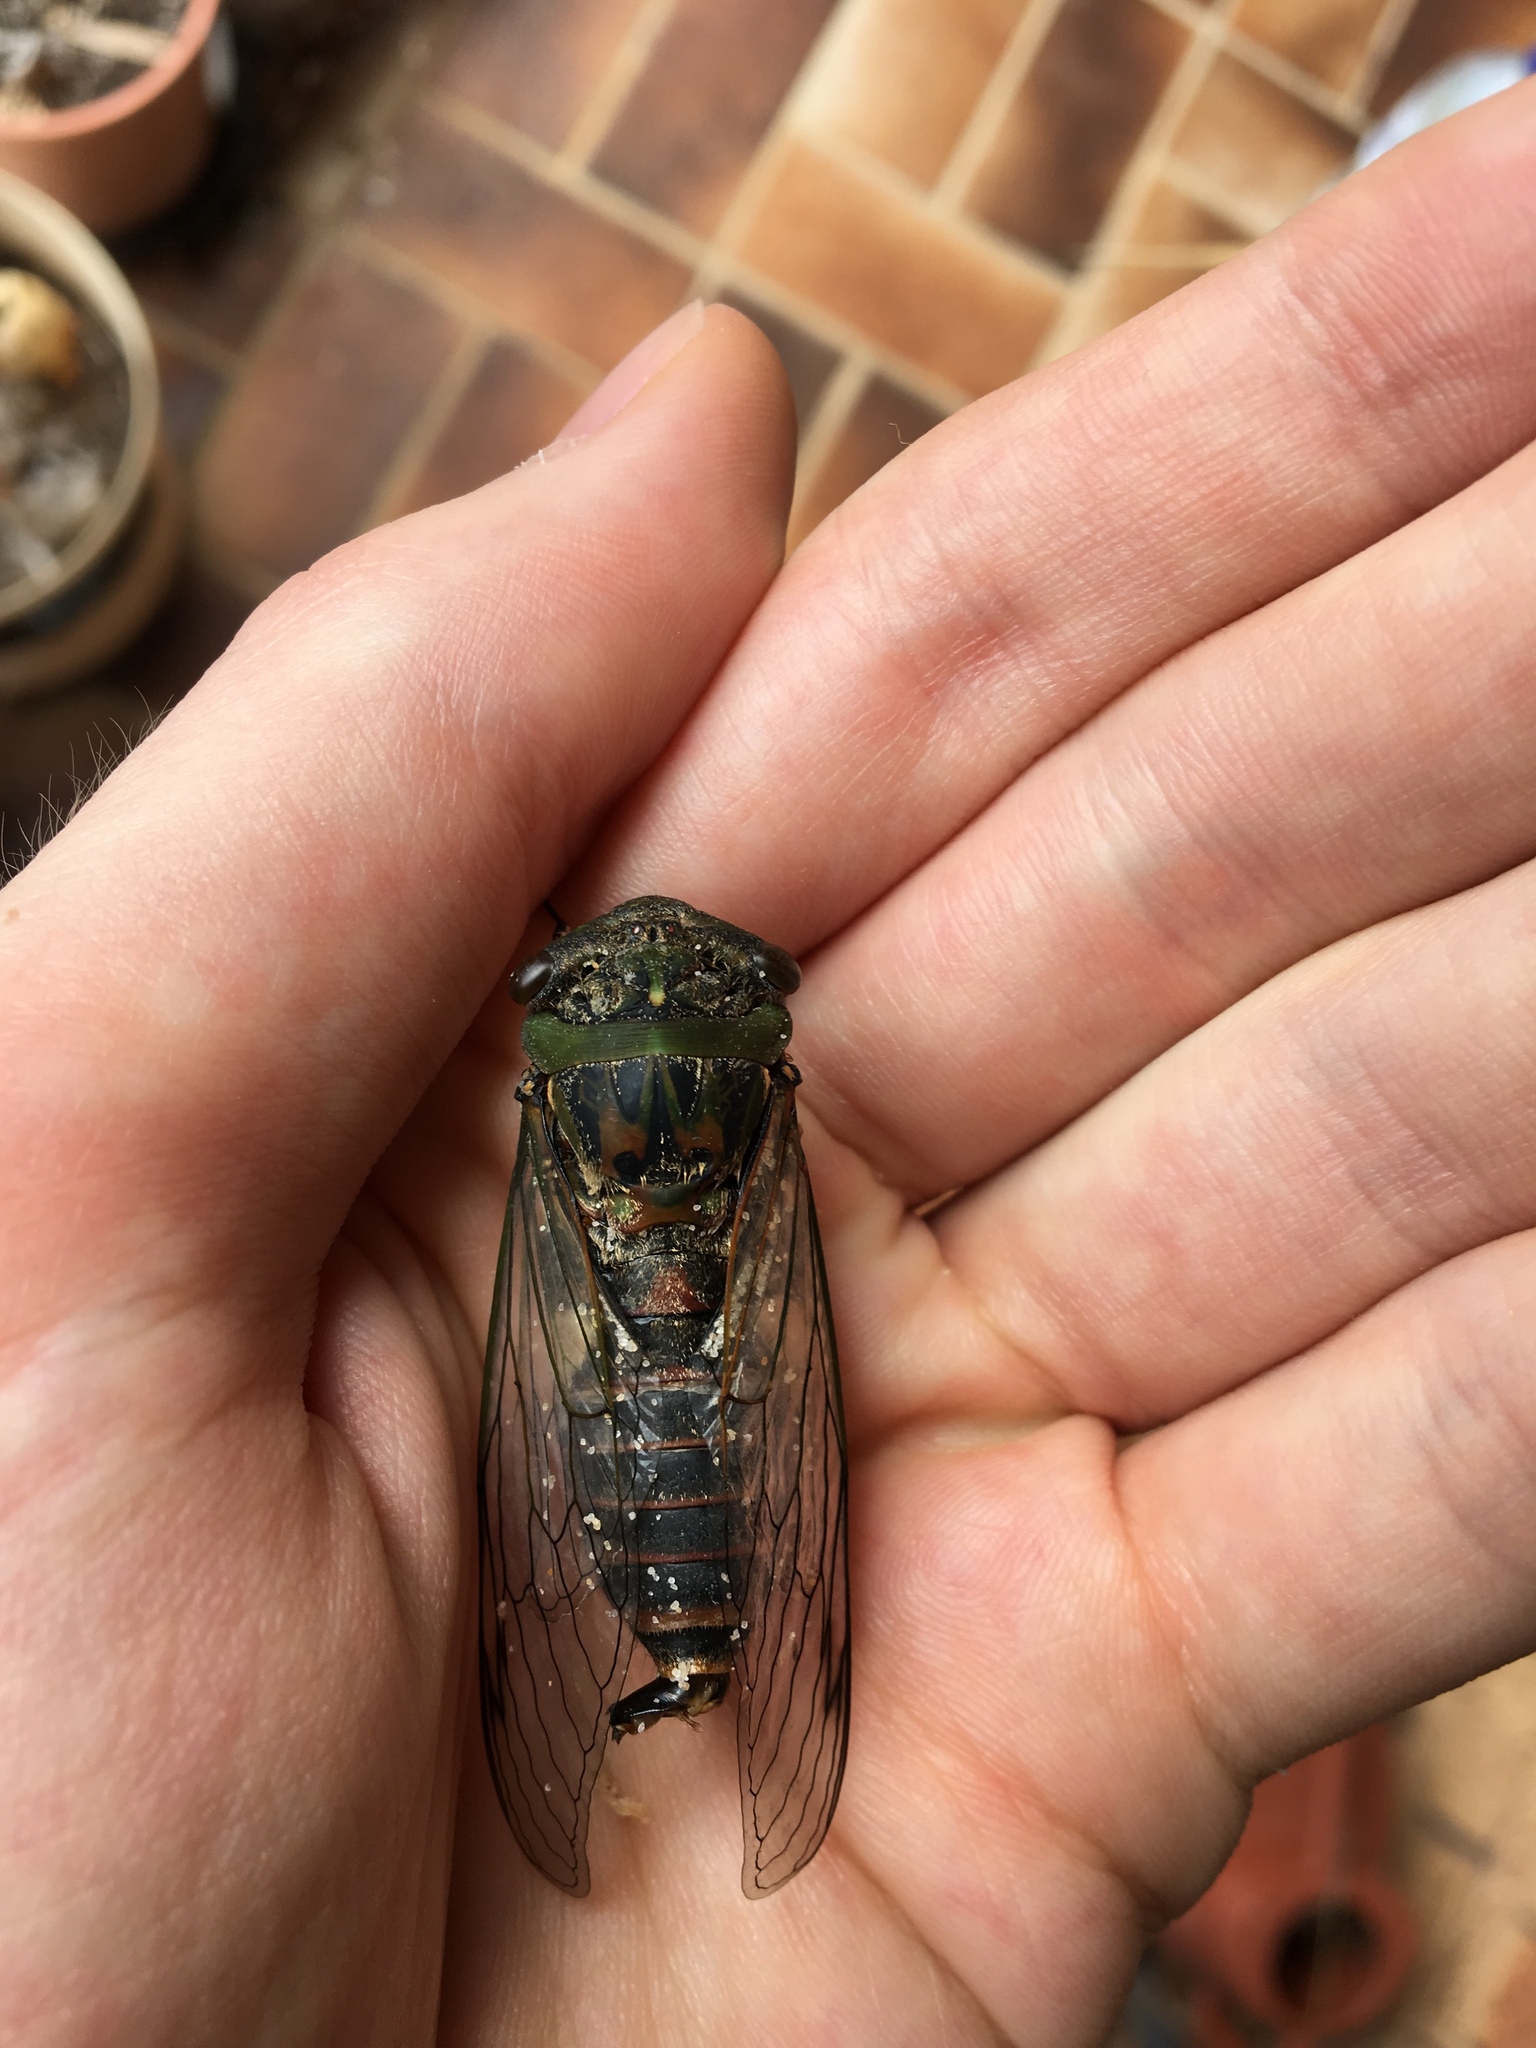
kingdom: Animalia
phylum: Arthropoda
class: Insecta
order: Hemiptera
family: Cicadidae
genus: Psaltoda
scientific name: Psaltoda plaga
